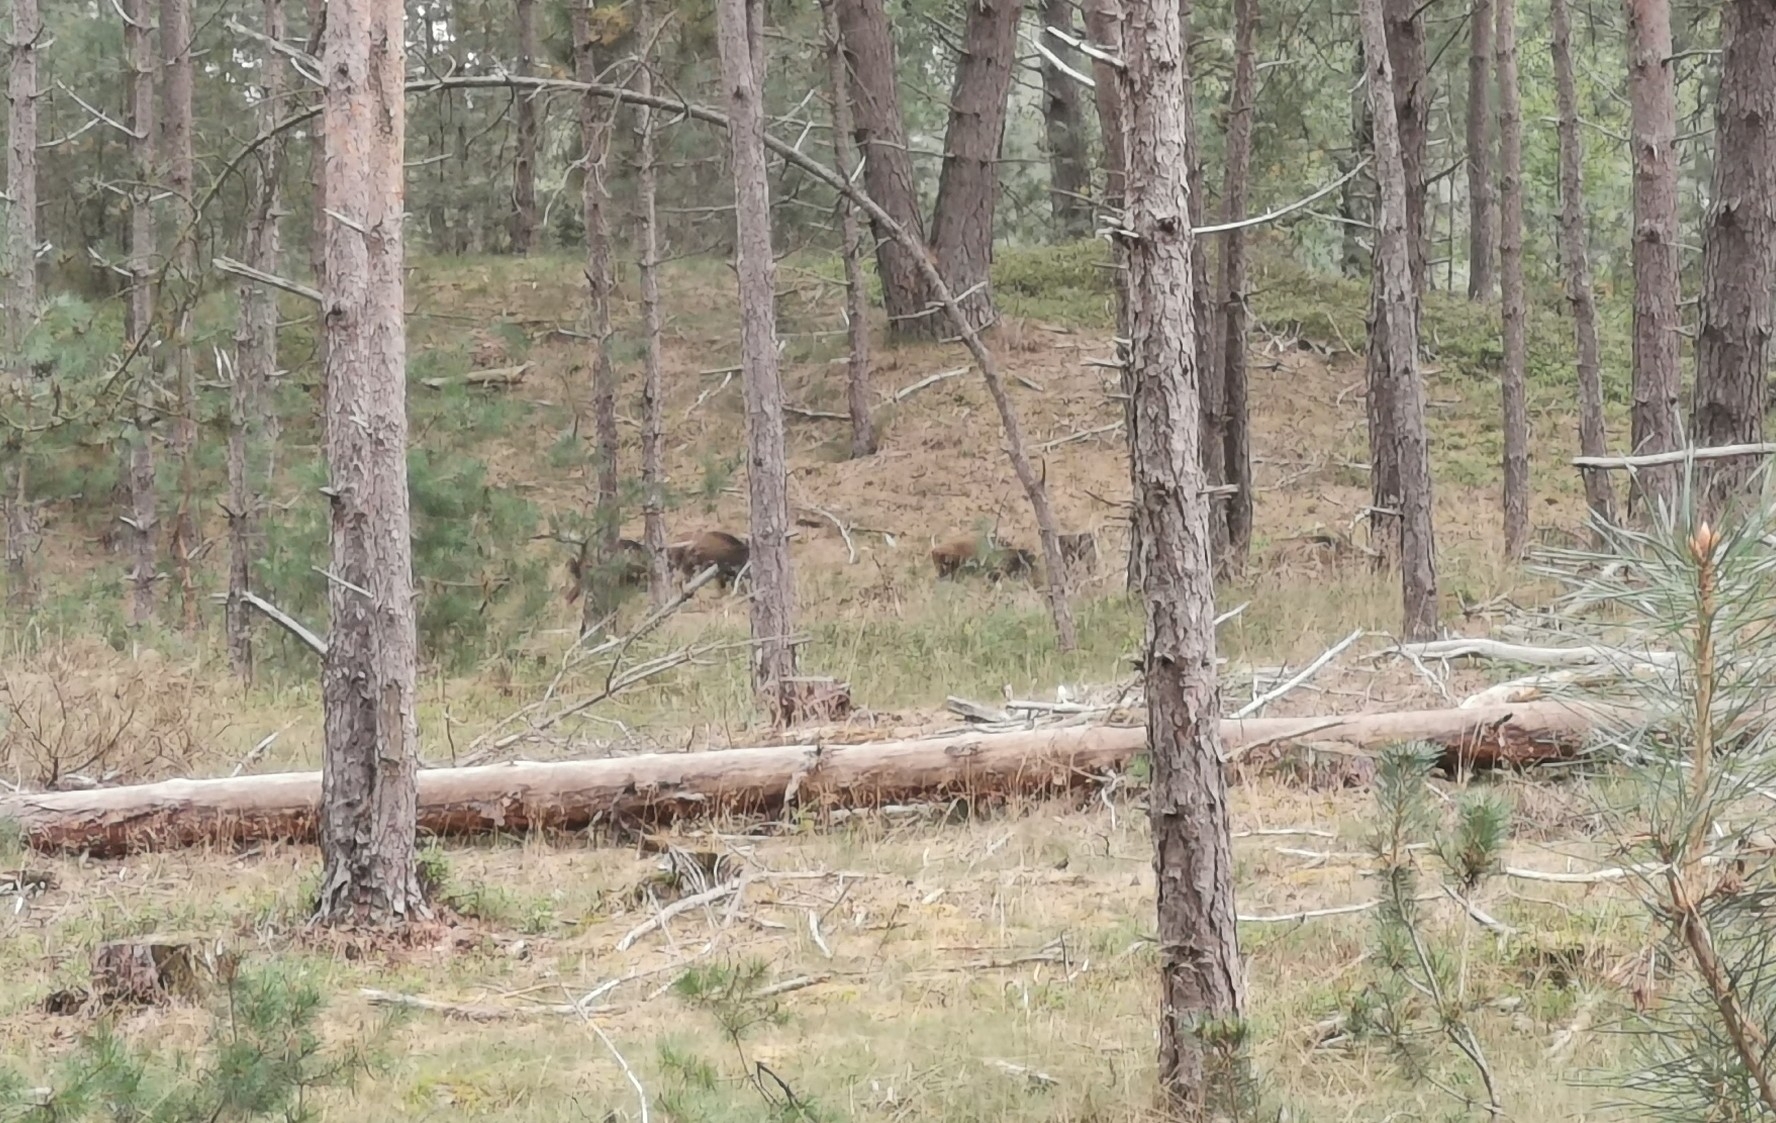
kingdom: Animalia
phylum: Chordata
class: Mammalia
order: Artiodactyla
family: Suidae
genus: Sus
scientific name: Sus scrofa
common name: Wild boar
